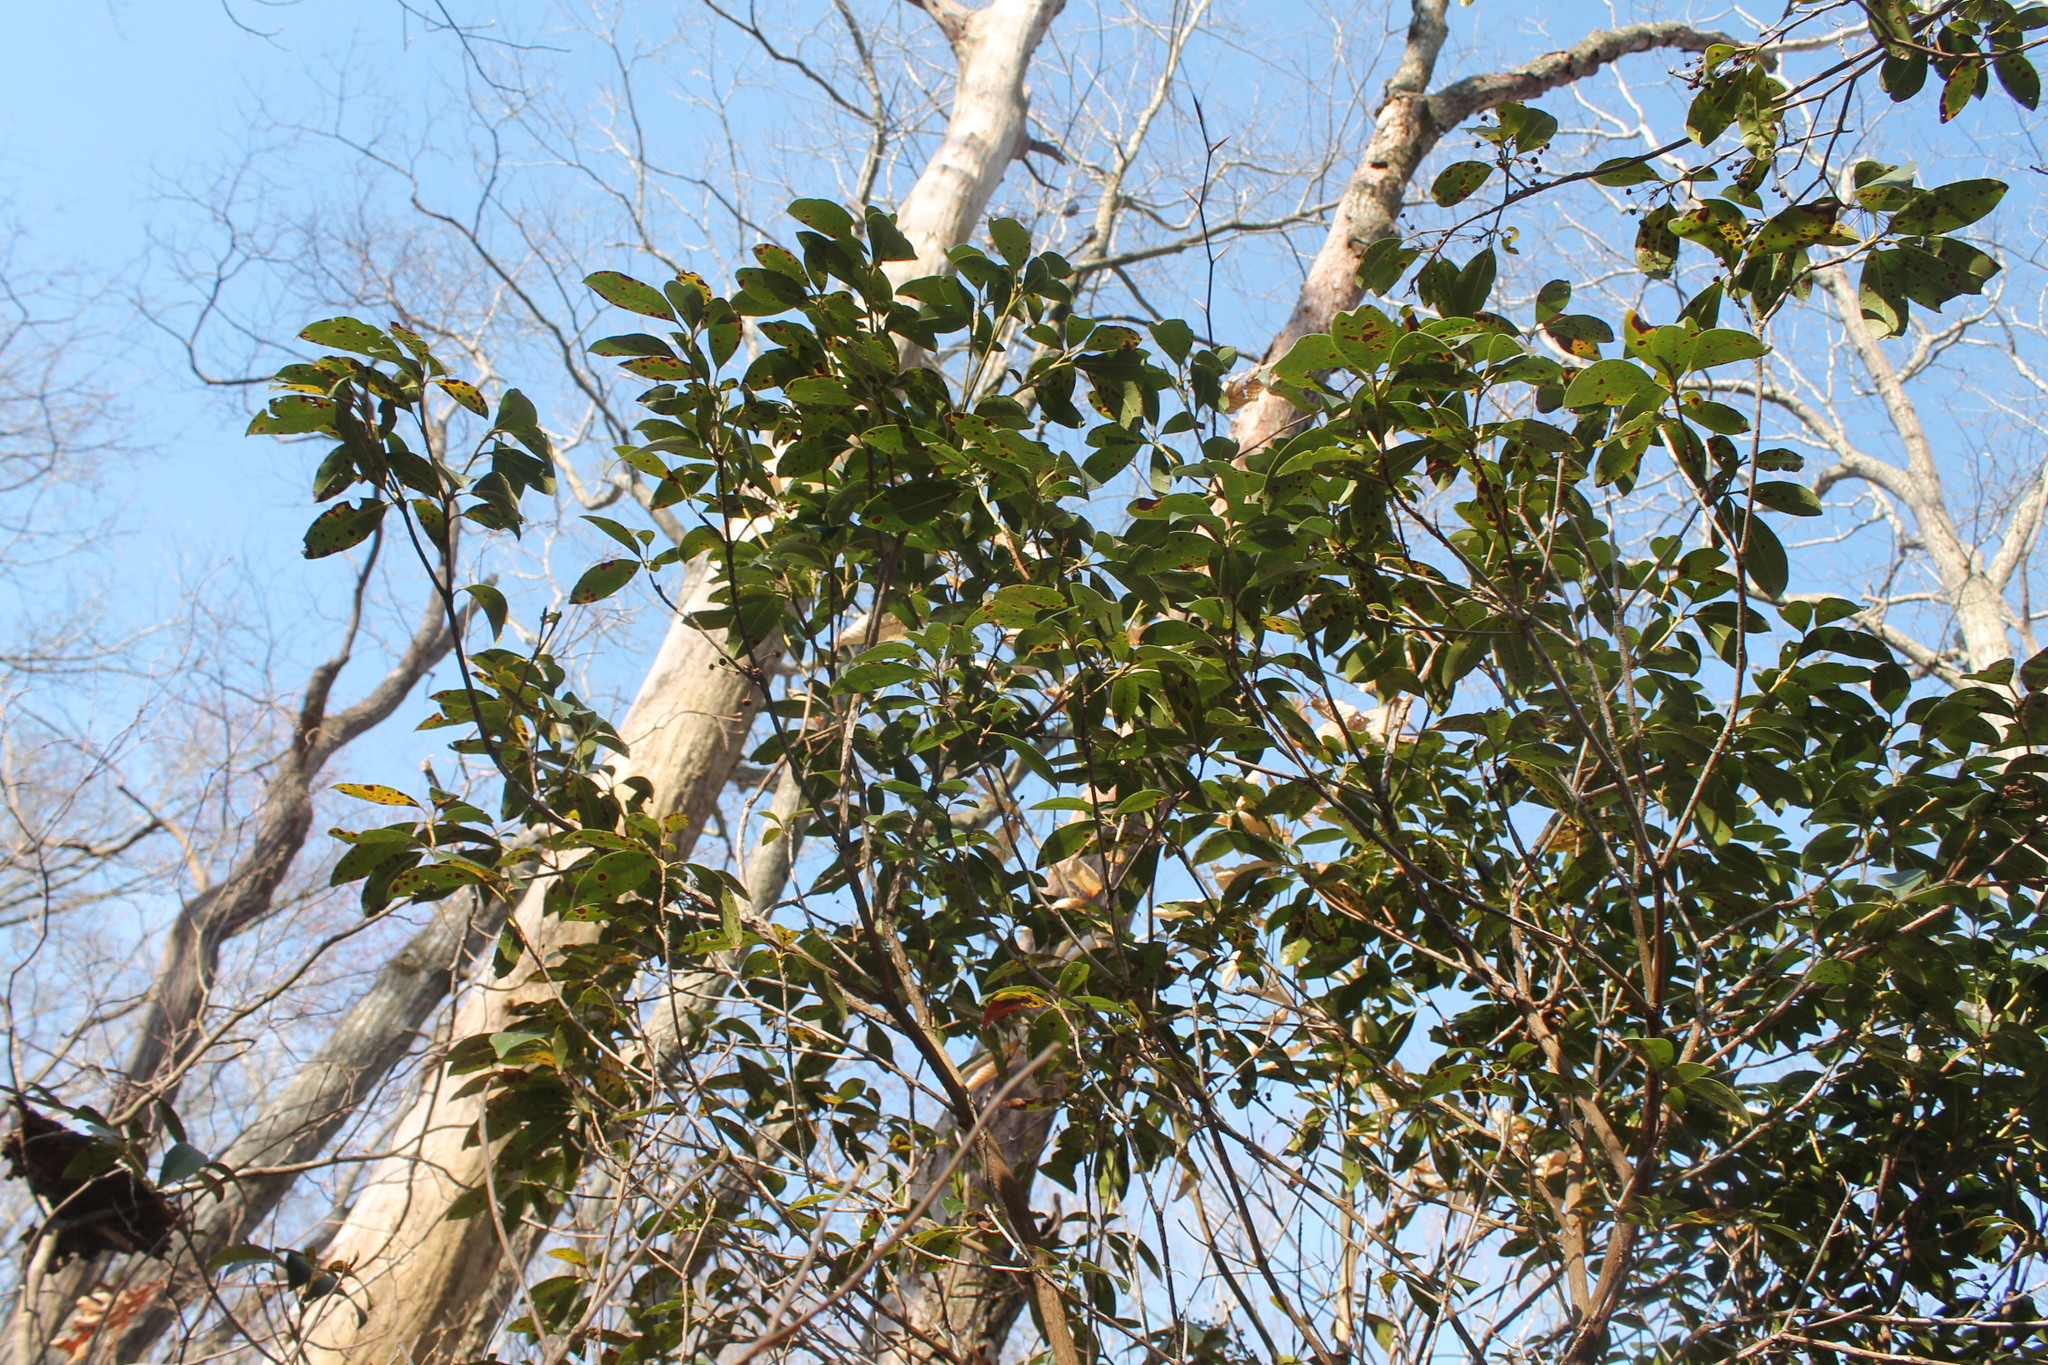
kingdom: Plantae
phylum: Tracheophyta
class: Magnoliopsida
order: Ericales
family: Ericaceae
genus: Kalmia
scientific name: Kalmia latifolia
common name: Mountain-laurel
